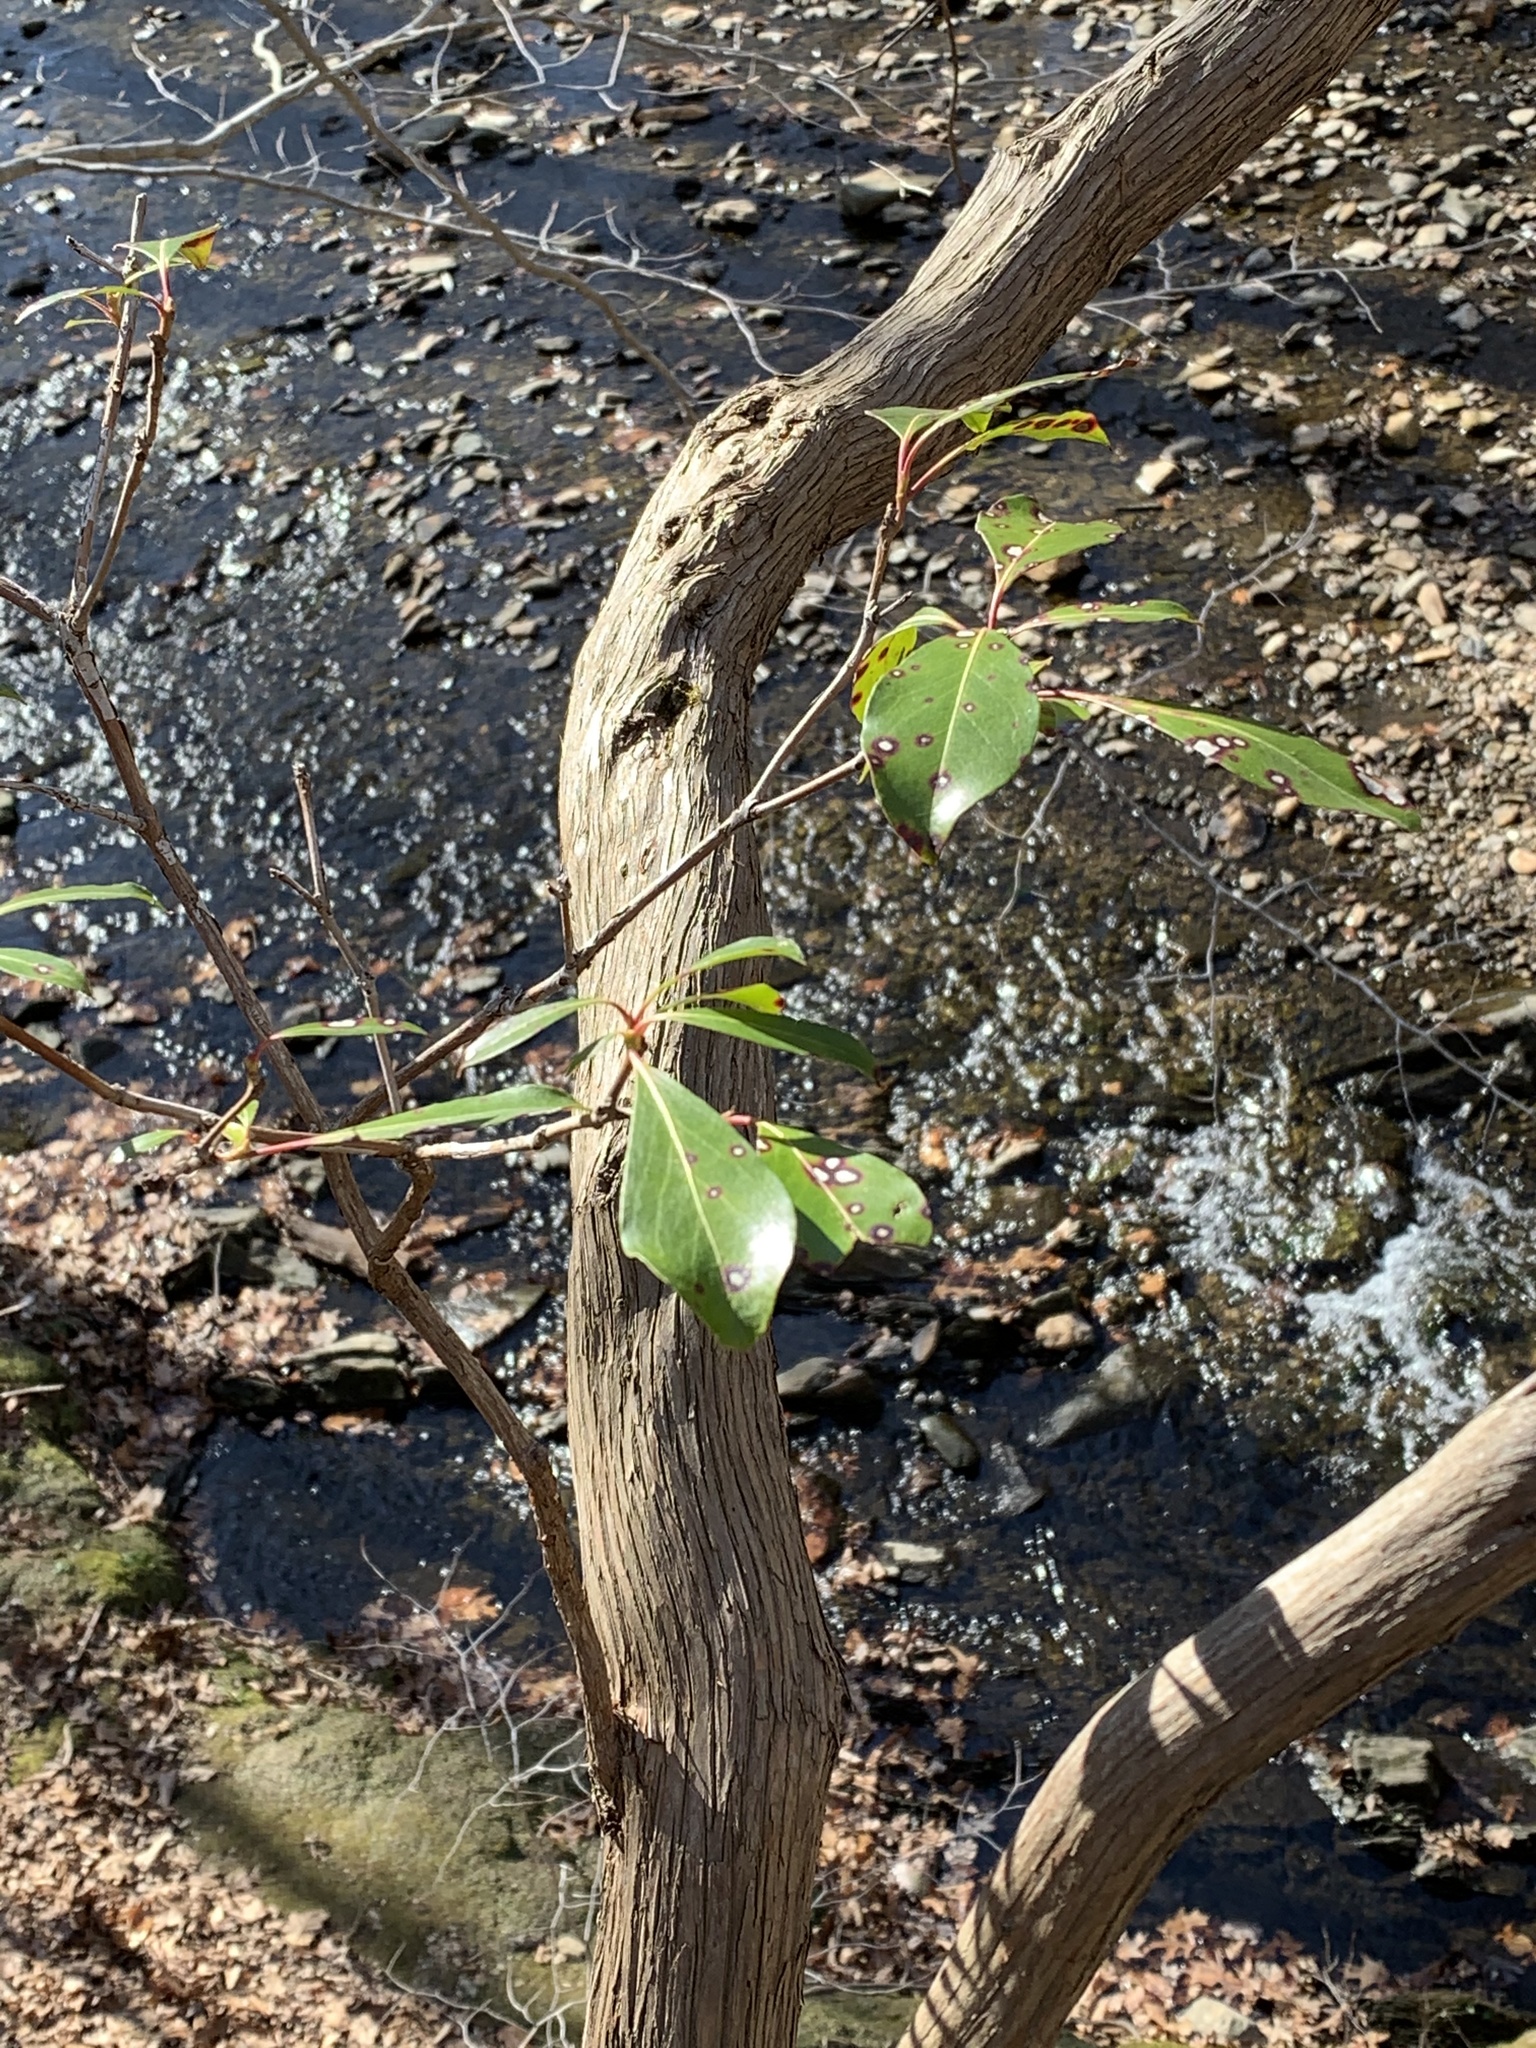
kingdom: Plantae
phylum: Tracheophyta
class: Magnoliopsida
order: Ericales
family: Ericaceae
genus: Kalmia
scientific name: Kalmia latifolia
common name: Mountain-laurel
